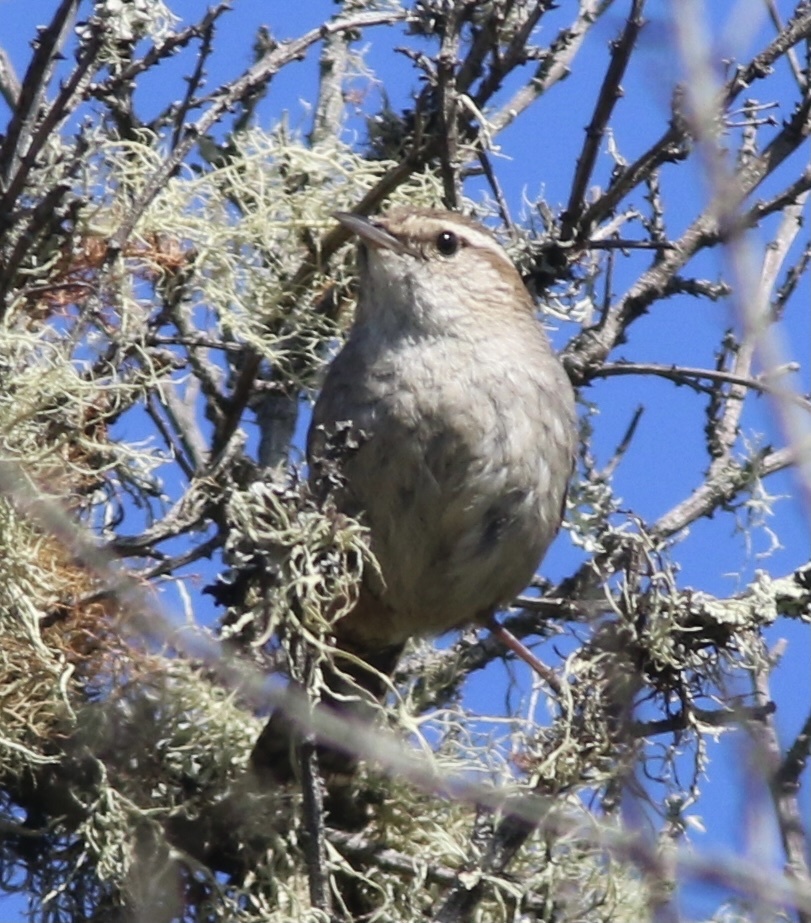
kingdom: Animalia
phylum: Chordata
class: Aves
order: Passeriformes
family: Troglodytidae
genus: Thryomanes
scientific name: Thryomanes bewickii
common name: Bewick's wren
